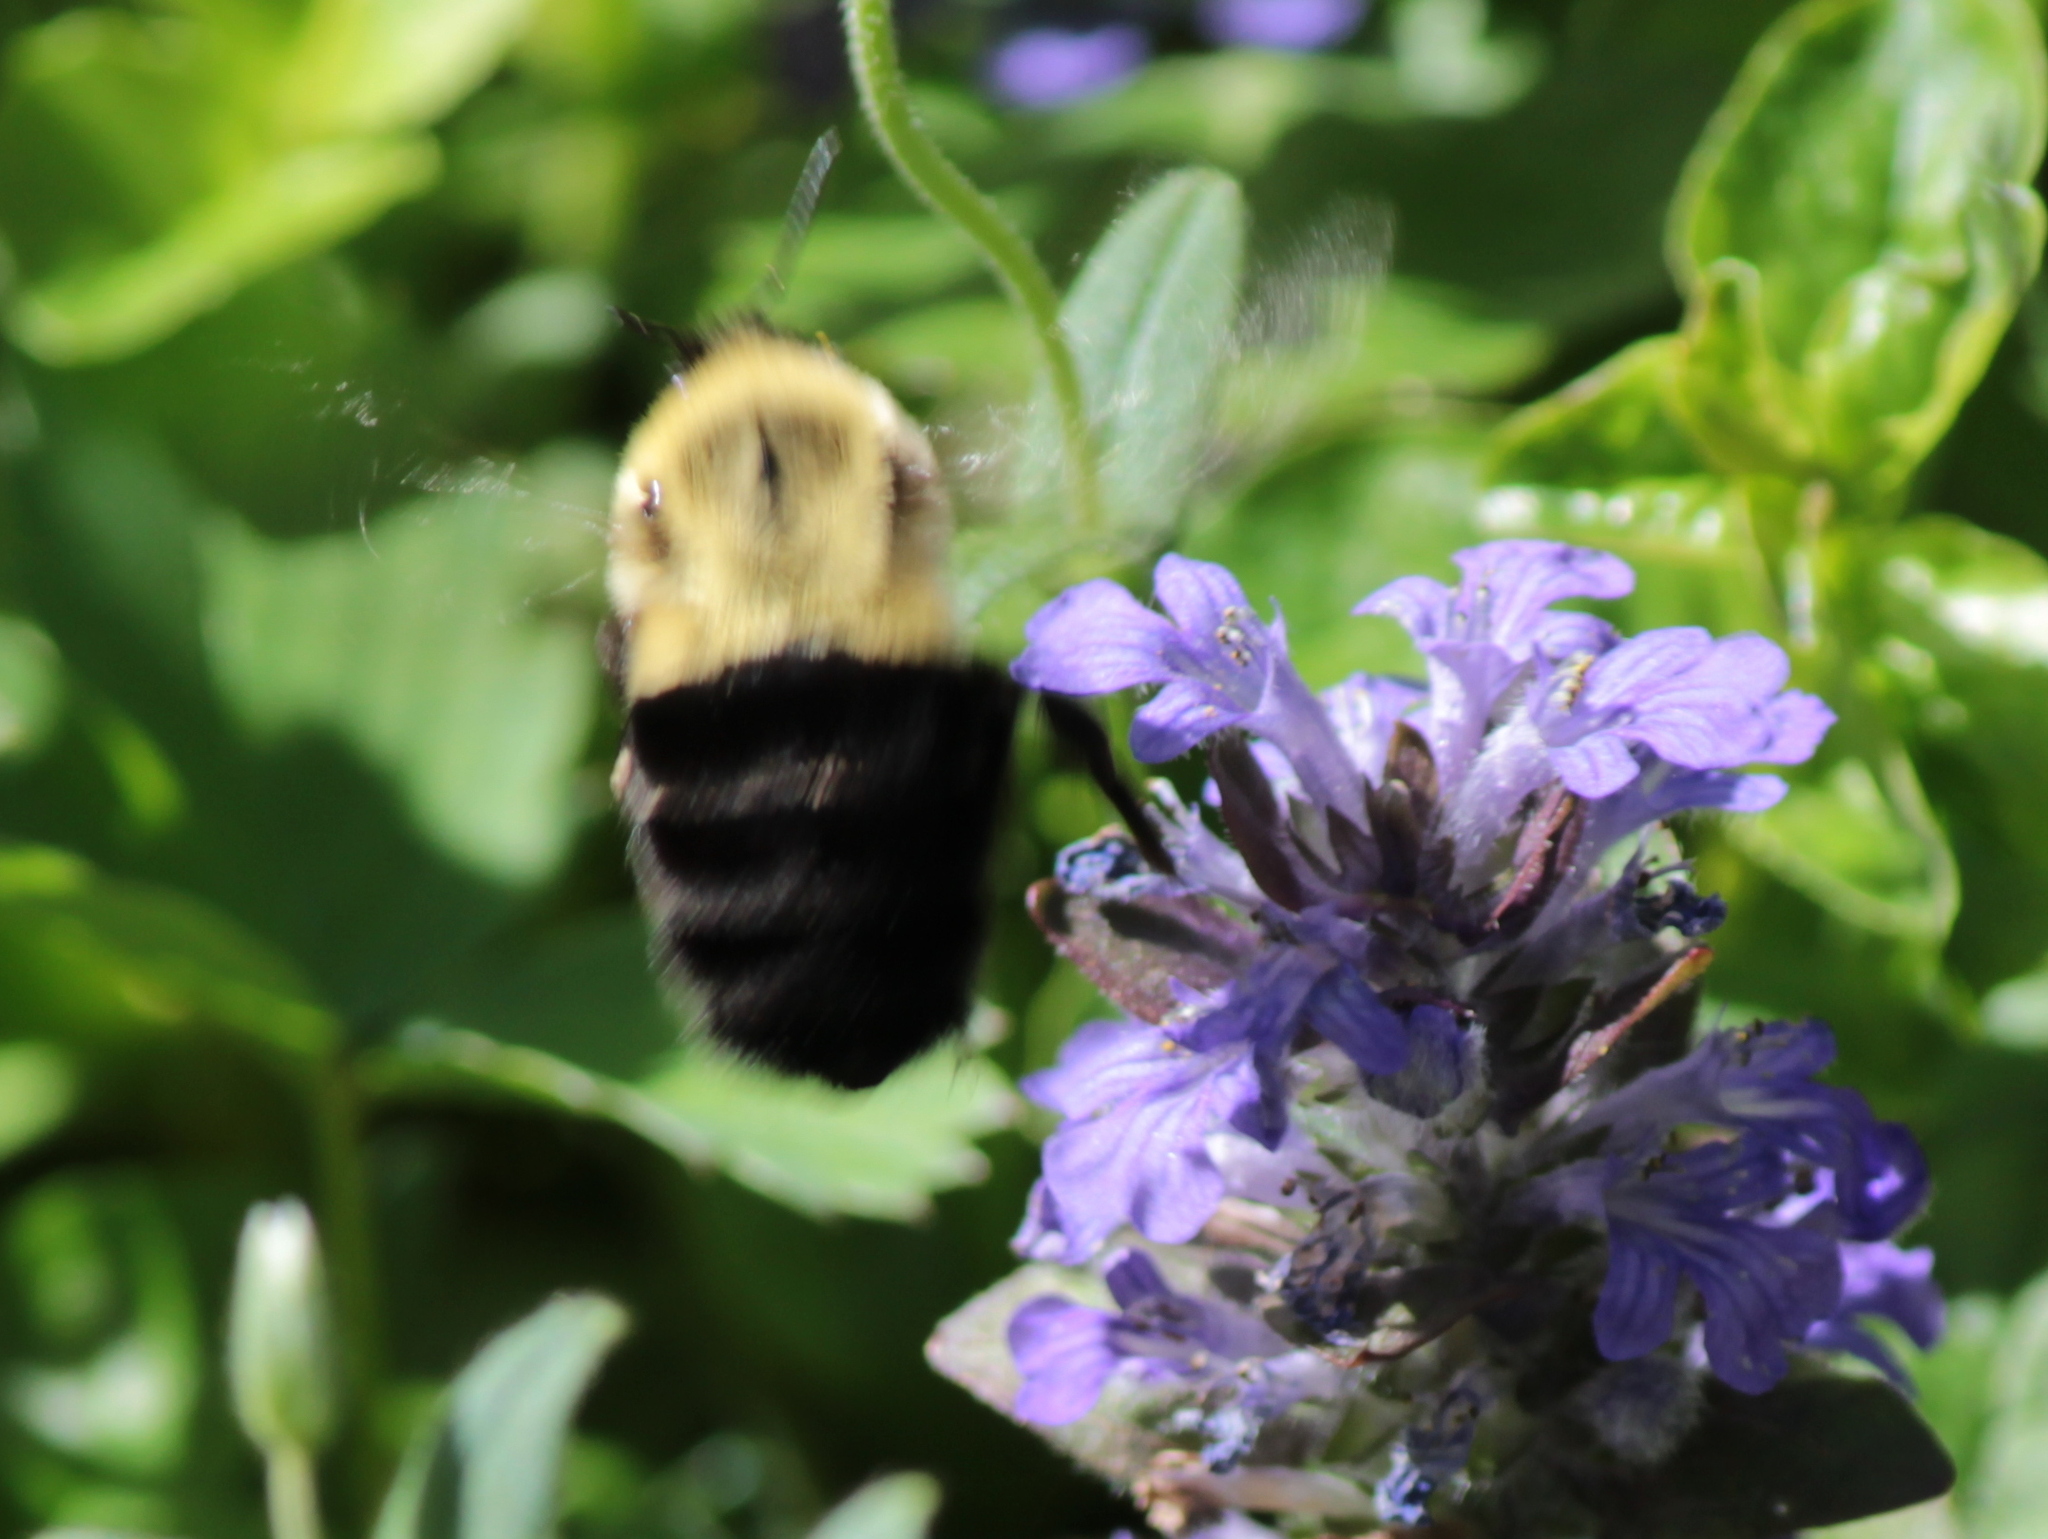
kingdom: Animalia
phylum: Arthropoda
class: Insecta
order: Hymenoptera
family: Apidae
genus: Bombus
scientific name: Bombus impatiens
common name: Common eastern bumble bee
